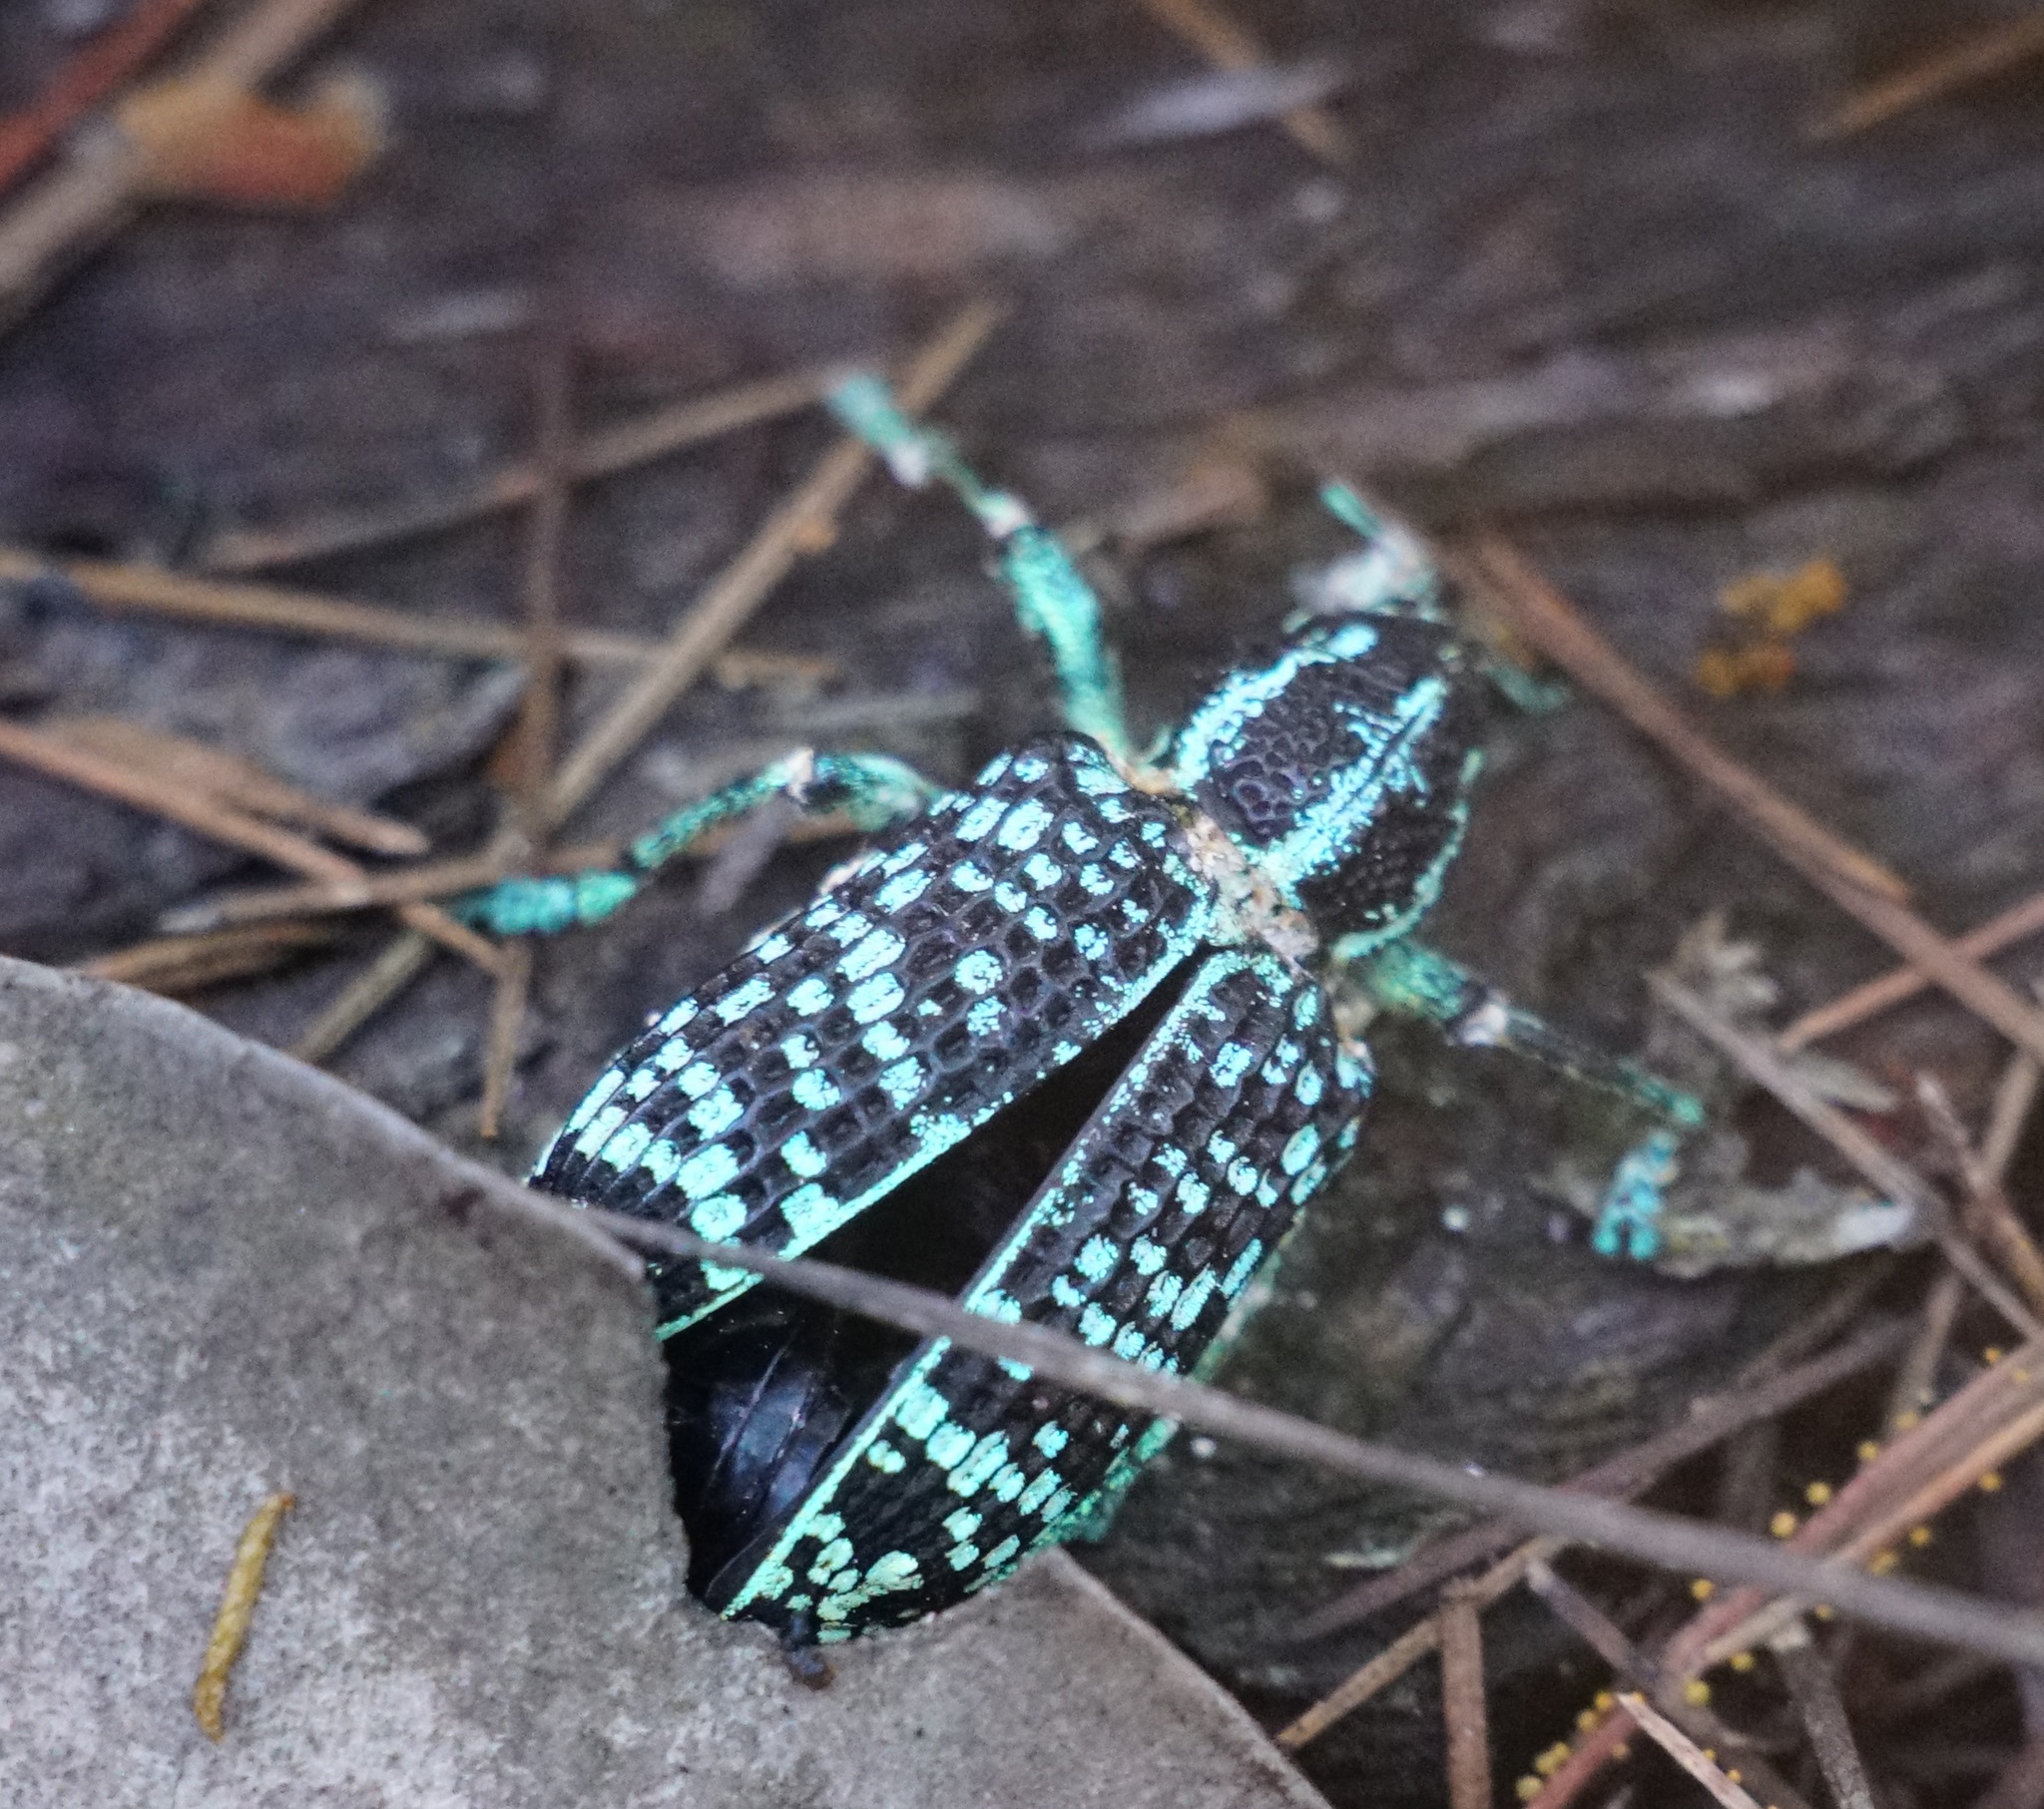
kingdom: Animalia
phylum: Arthropoda
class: Insecta
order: Coleoptera
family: Curculionidae
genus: Chrysolopus
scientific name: Chrysolopus spectabilis
